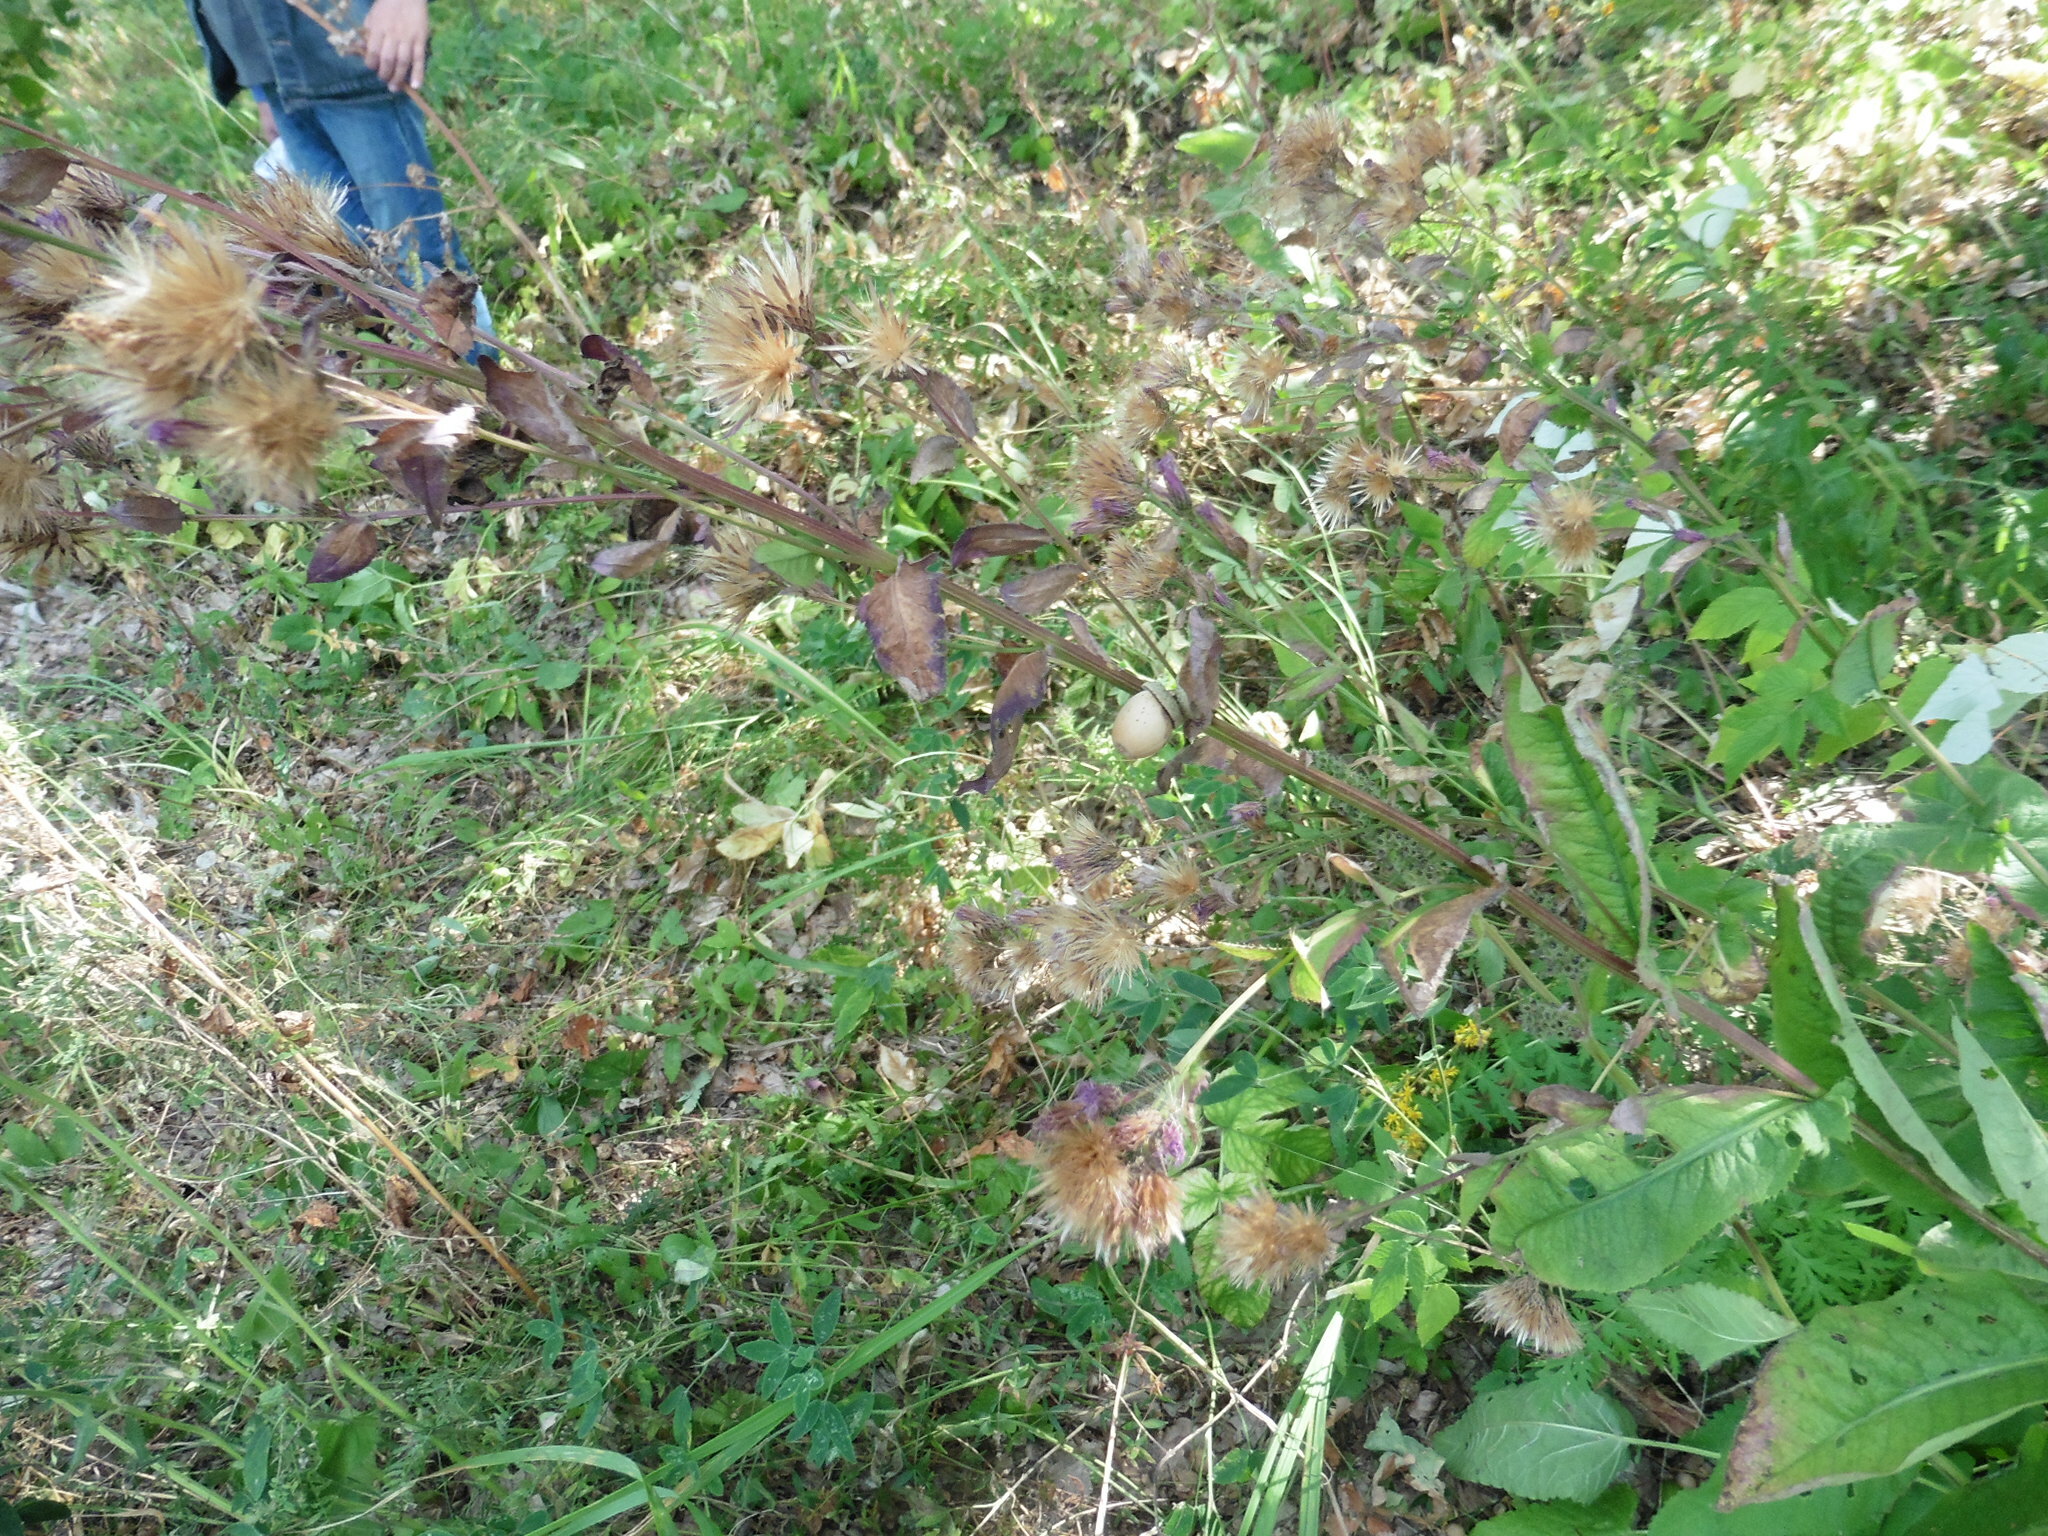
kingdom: Plantae
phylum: Tracheophyta
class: Magnoliopsida
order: Asterales
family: Asteraceae
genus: Serratula
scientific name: Serratula tinctoria
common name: Saw-wort
